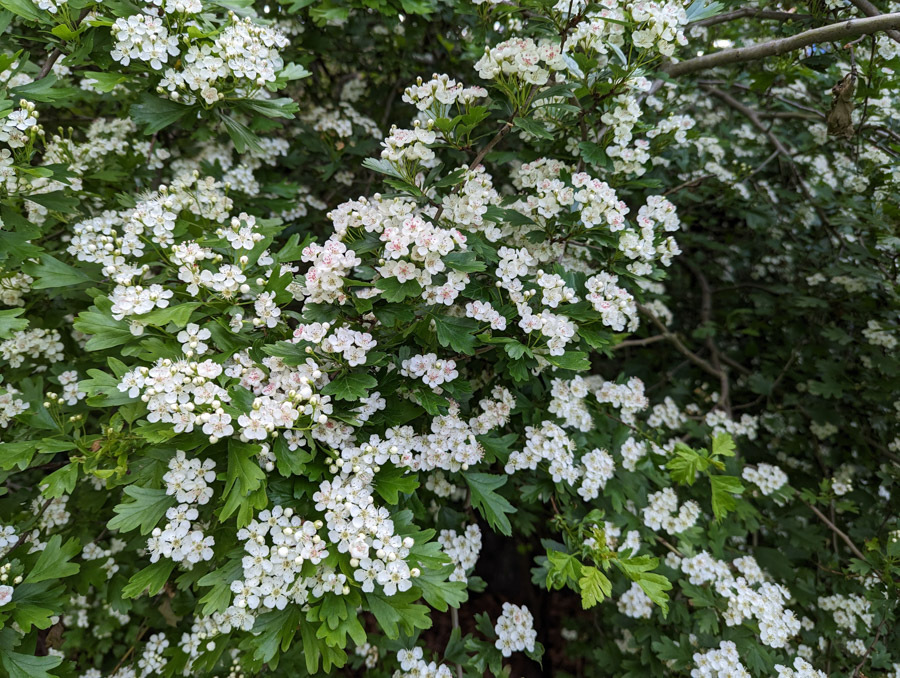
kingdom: Plantae
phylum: Tracheophyta
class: Magnoliopsida
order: Rosales
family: Rosaceae
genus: Crataegus
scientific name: Crataegus monogyna
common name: Hawthorn
